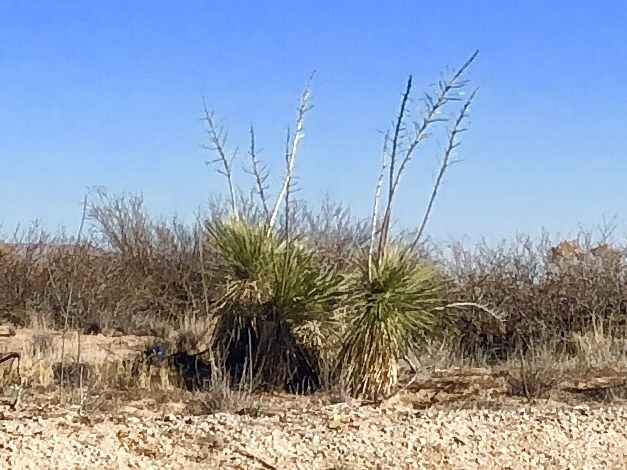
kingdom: Plantae
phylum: Tracheophyta
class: Liliopsida
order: Asparagales
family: Asparagaceae
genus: Yucca
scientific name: Yucca elata
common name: Palmella
